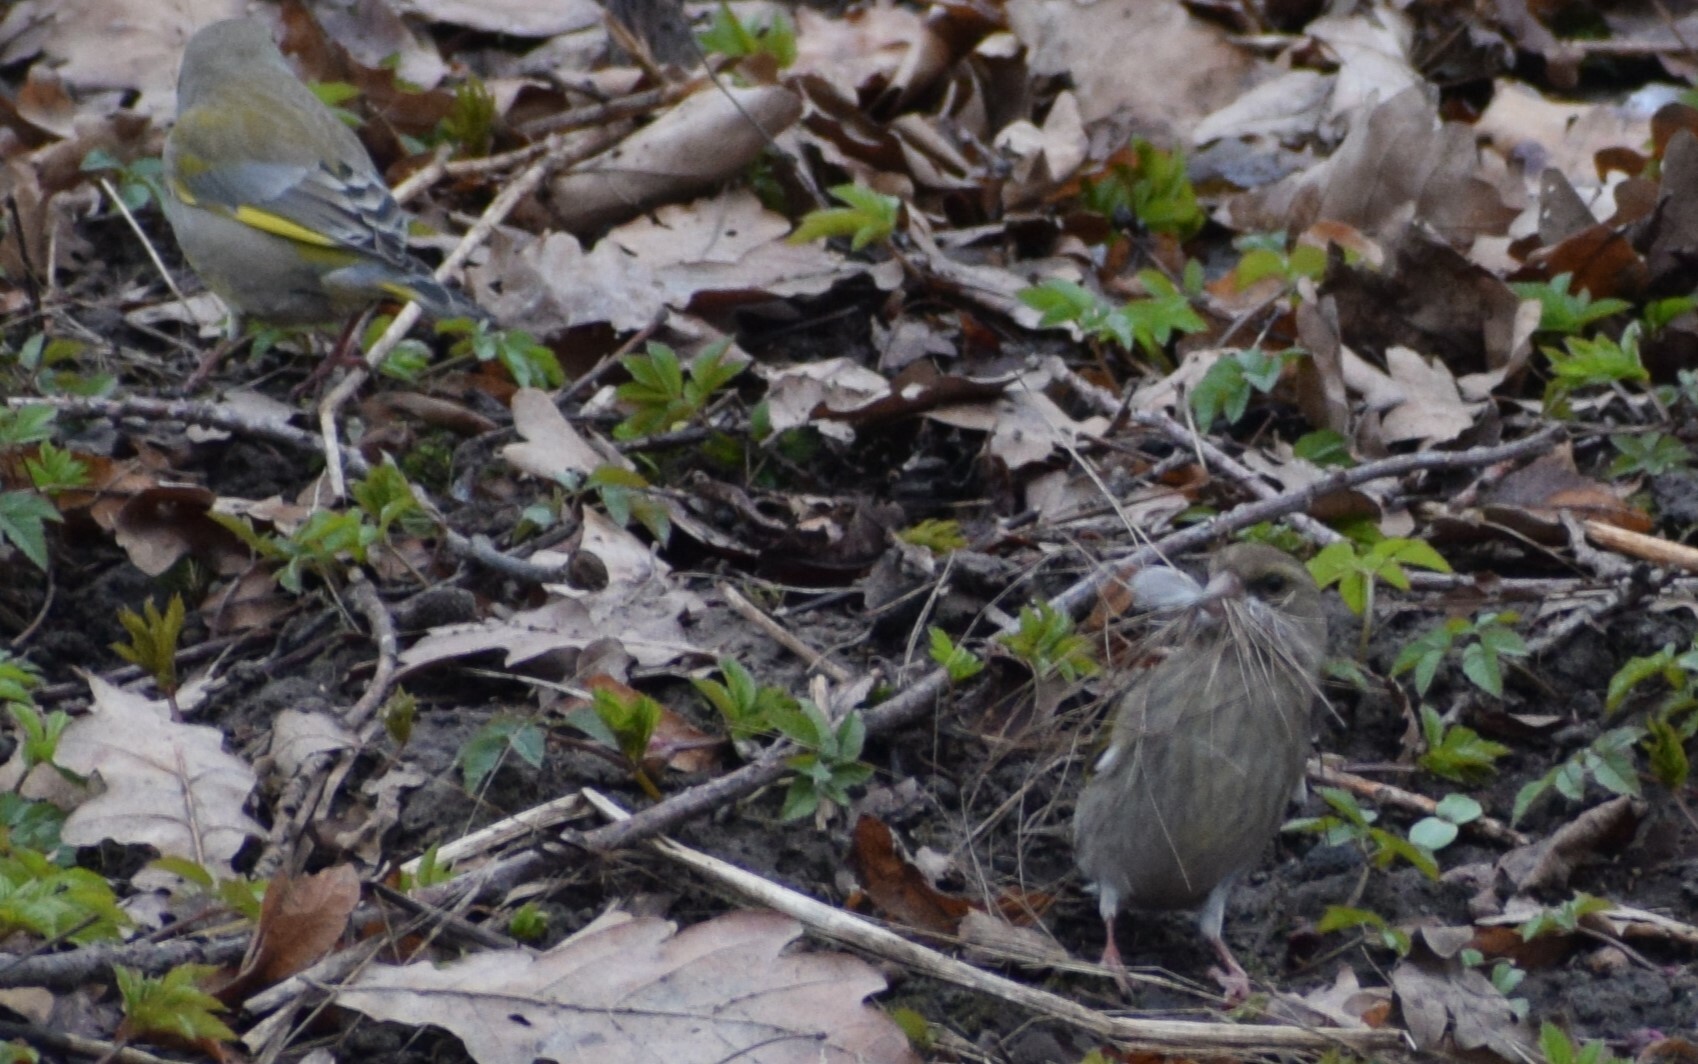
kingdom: Plantae
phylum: Tracheophyta
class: Liliopsida
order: Poales
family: Poaceae
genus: Chloris
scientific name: Chloris chloris
